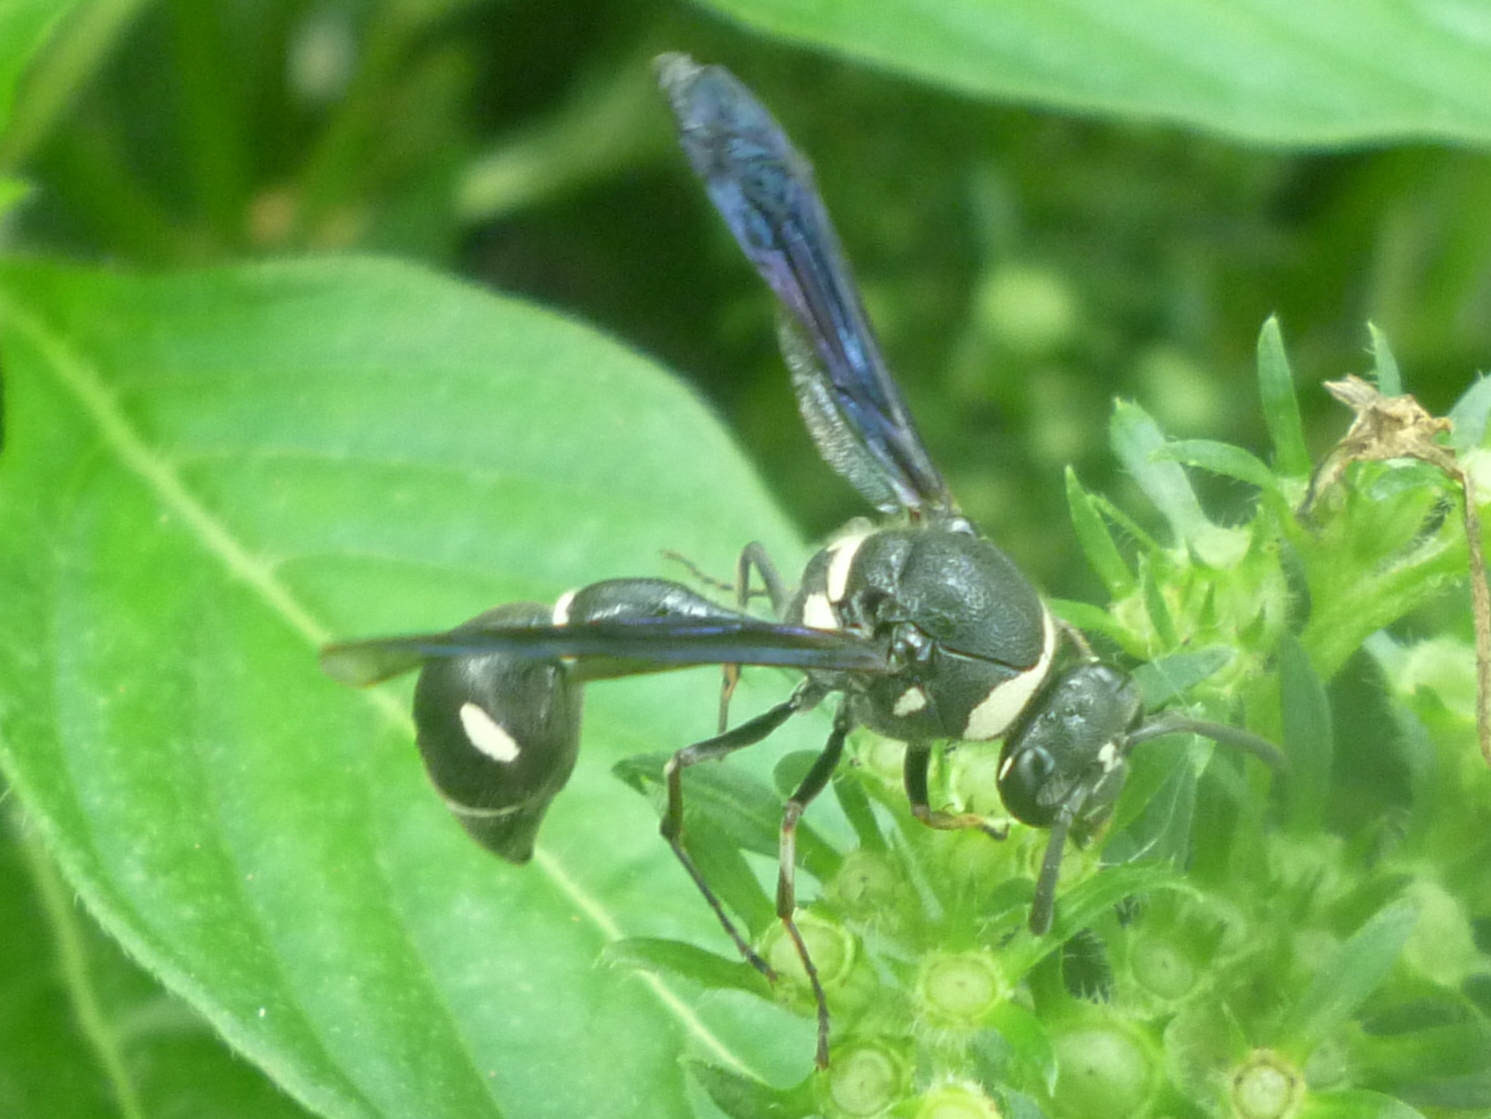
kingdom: Animalia
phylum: Arthropoda
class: Insecta
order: Hymenoptera
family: Vespidae
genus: Eumenes
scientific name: Eumenes fraternus
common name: Fraternal potter wasp
